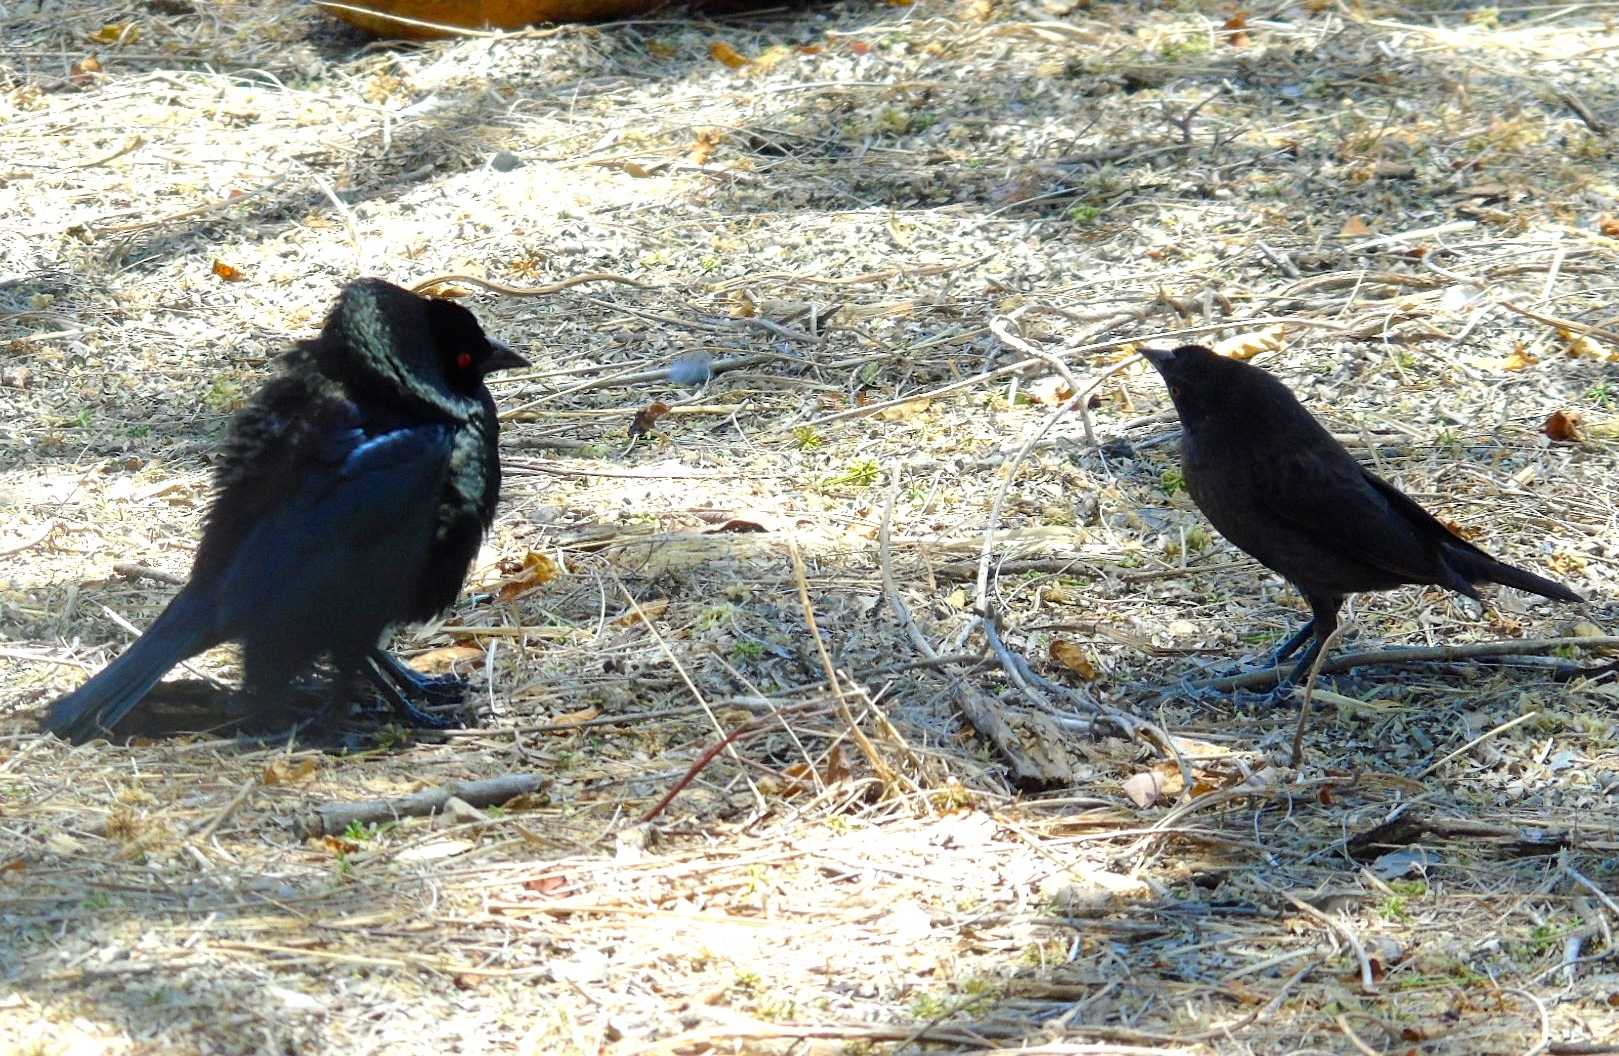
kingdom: Animalia
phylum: Chordata
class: Aves
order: Passeriformes
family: Icteridae
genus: Molothrus
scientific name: Molothrus aeneus
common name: Bronzed cowbird
